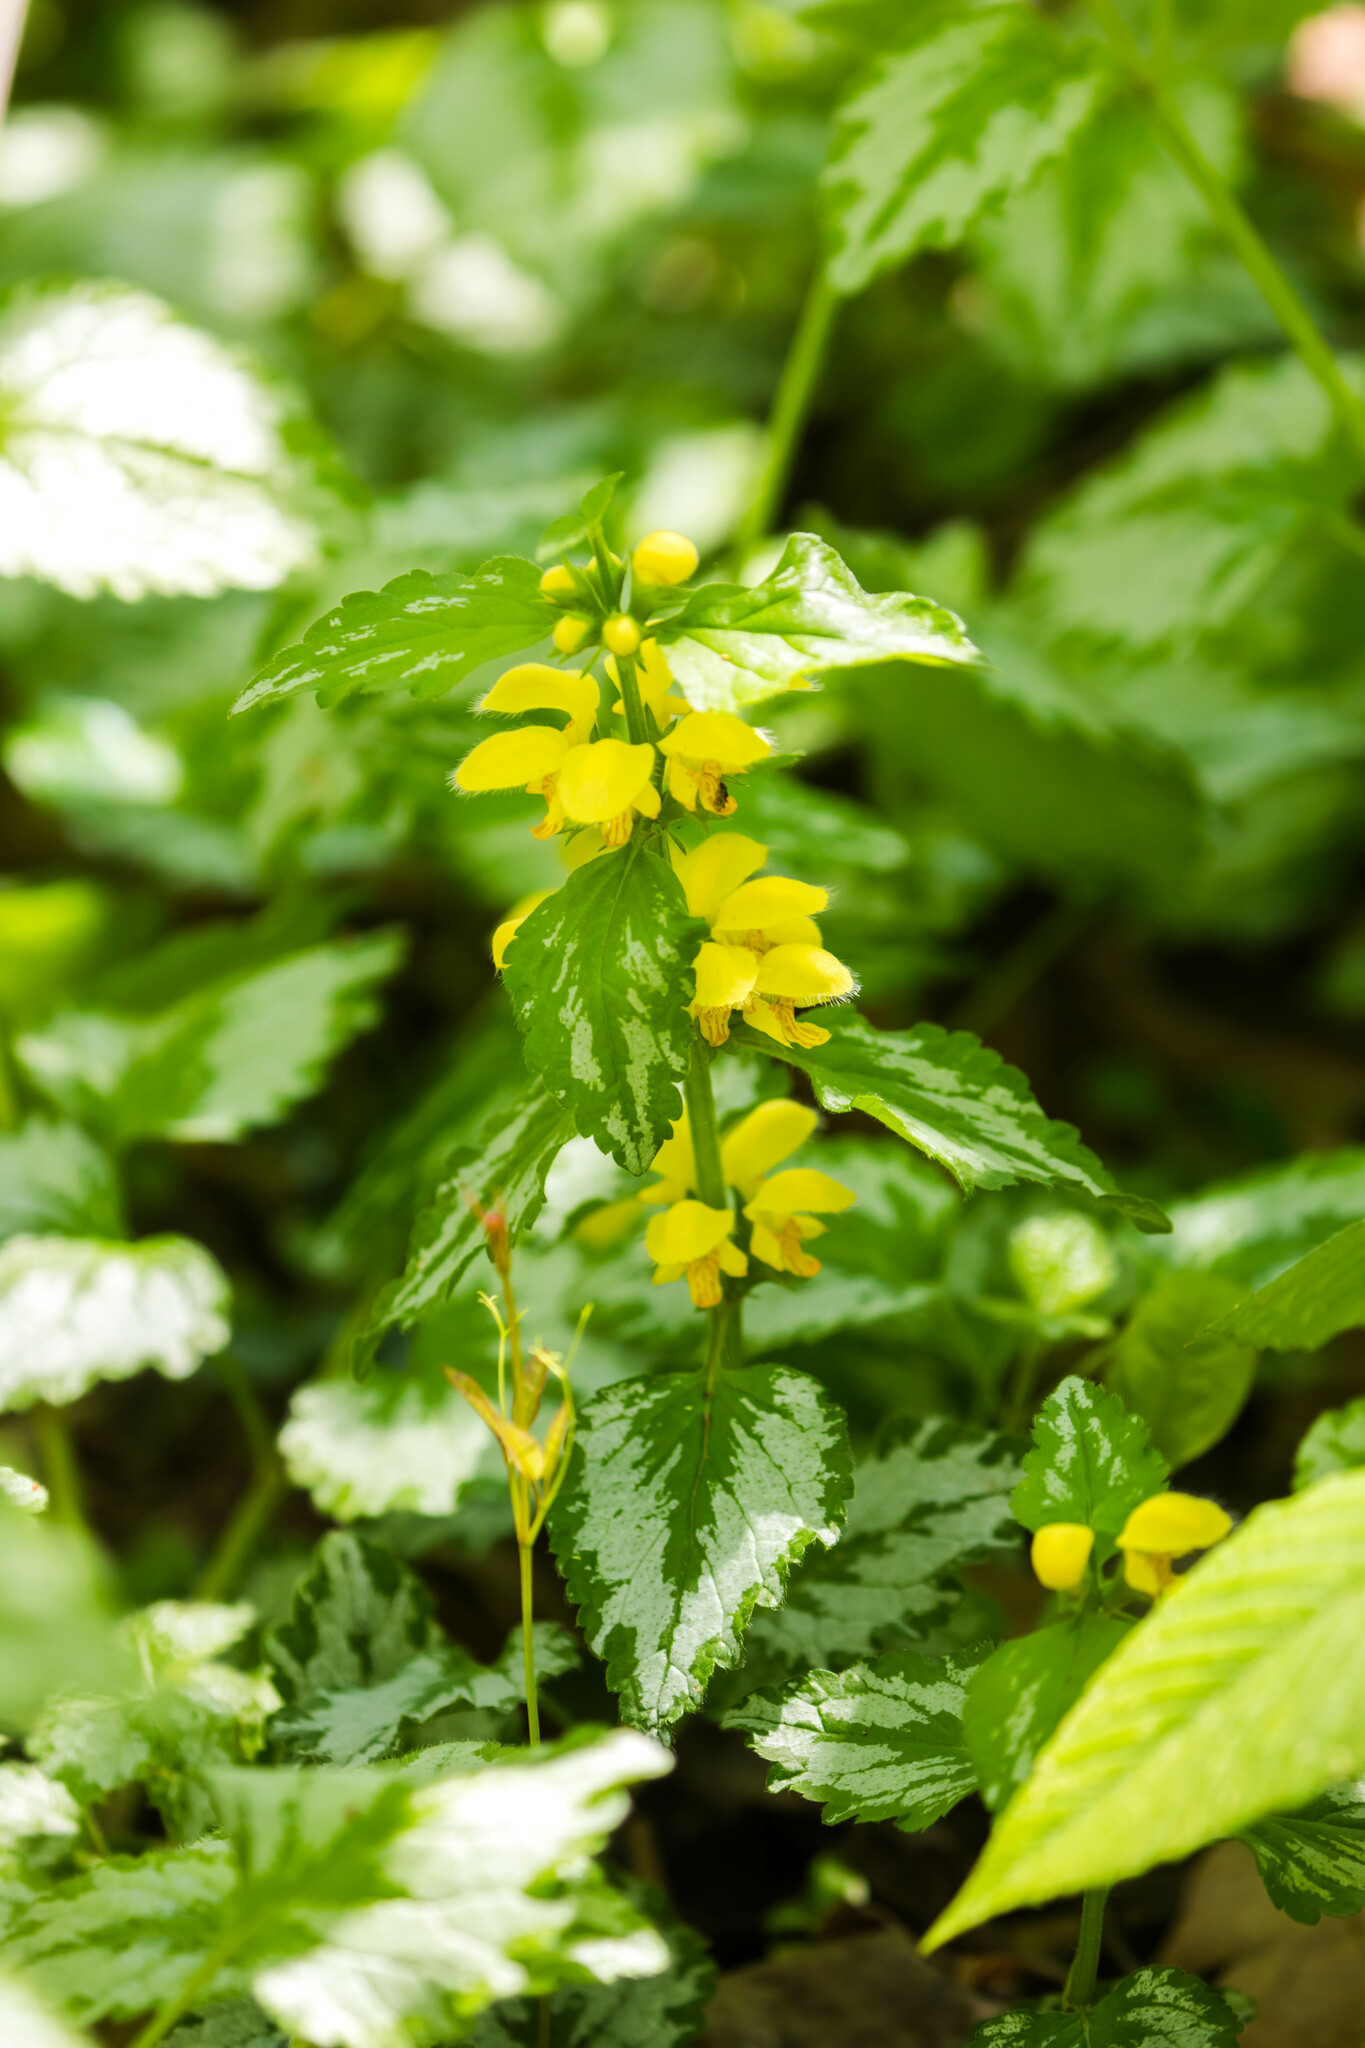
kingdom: Plantae
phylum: Tracheophyta
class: Magnoliopsida
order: Lamiales
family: Lamiaceae
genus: Lamium
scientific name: Lamium galeobdolon
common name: Yellow archangel
